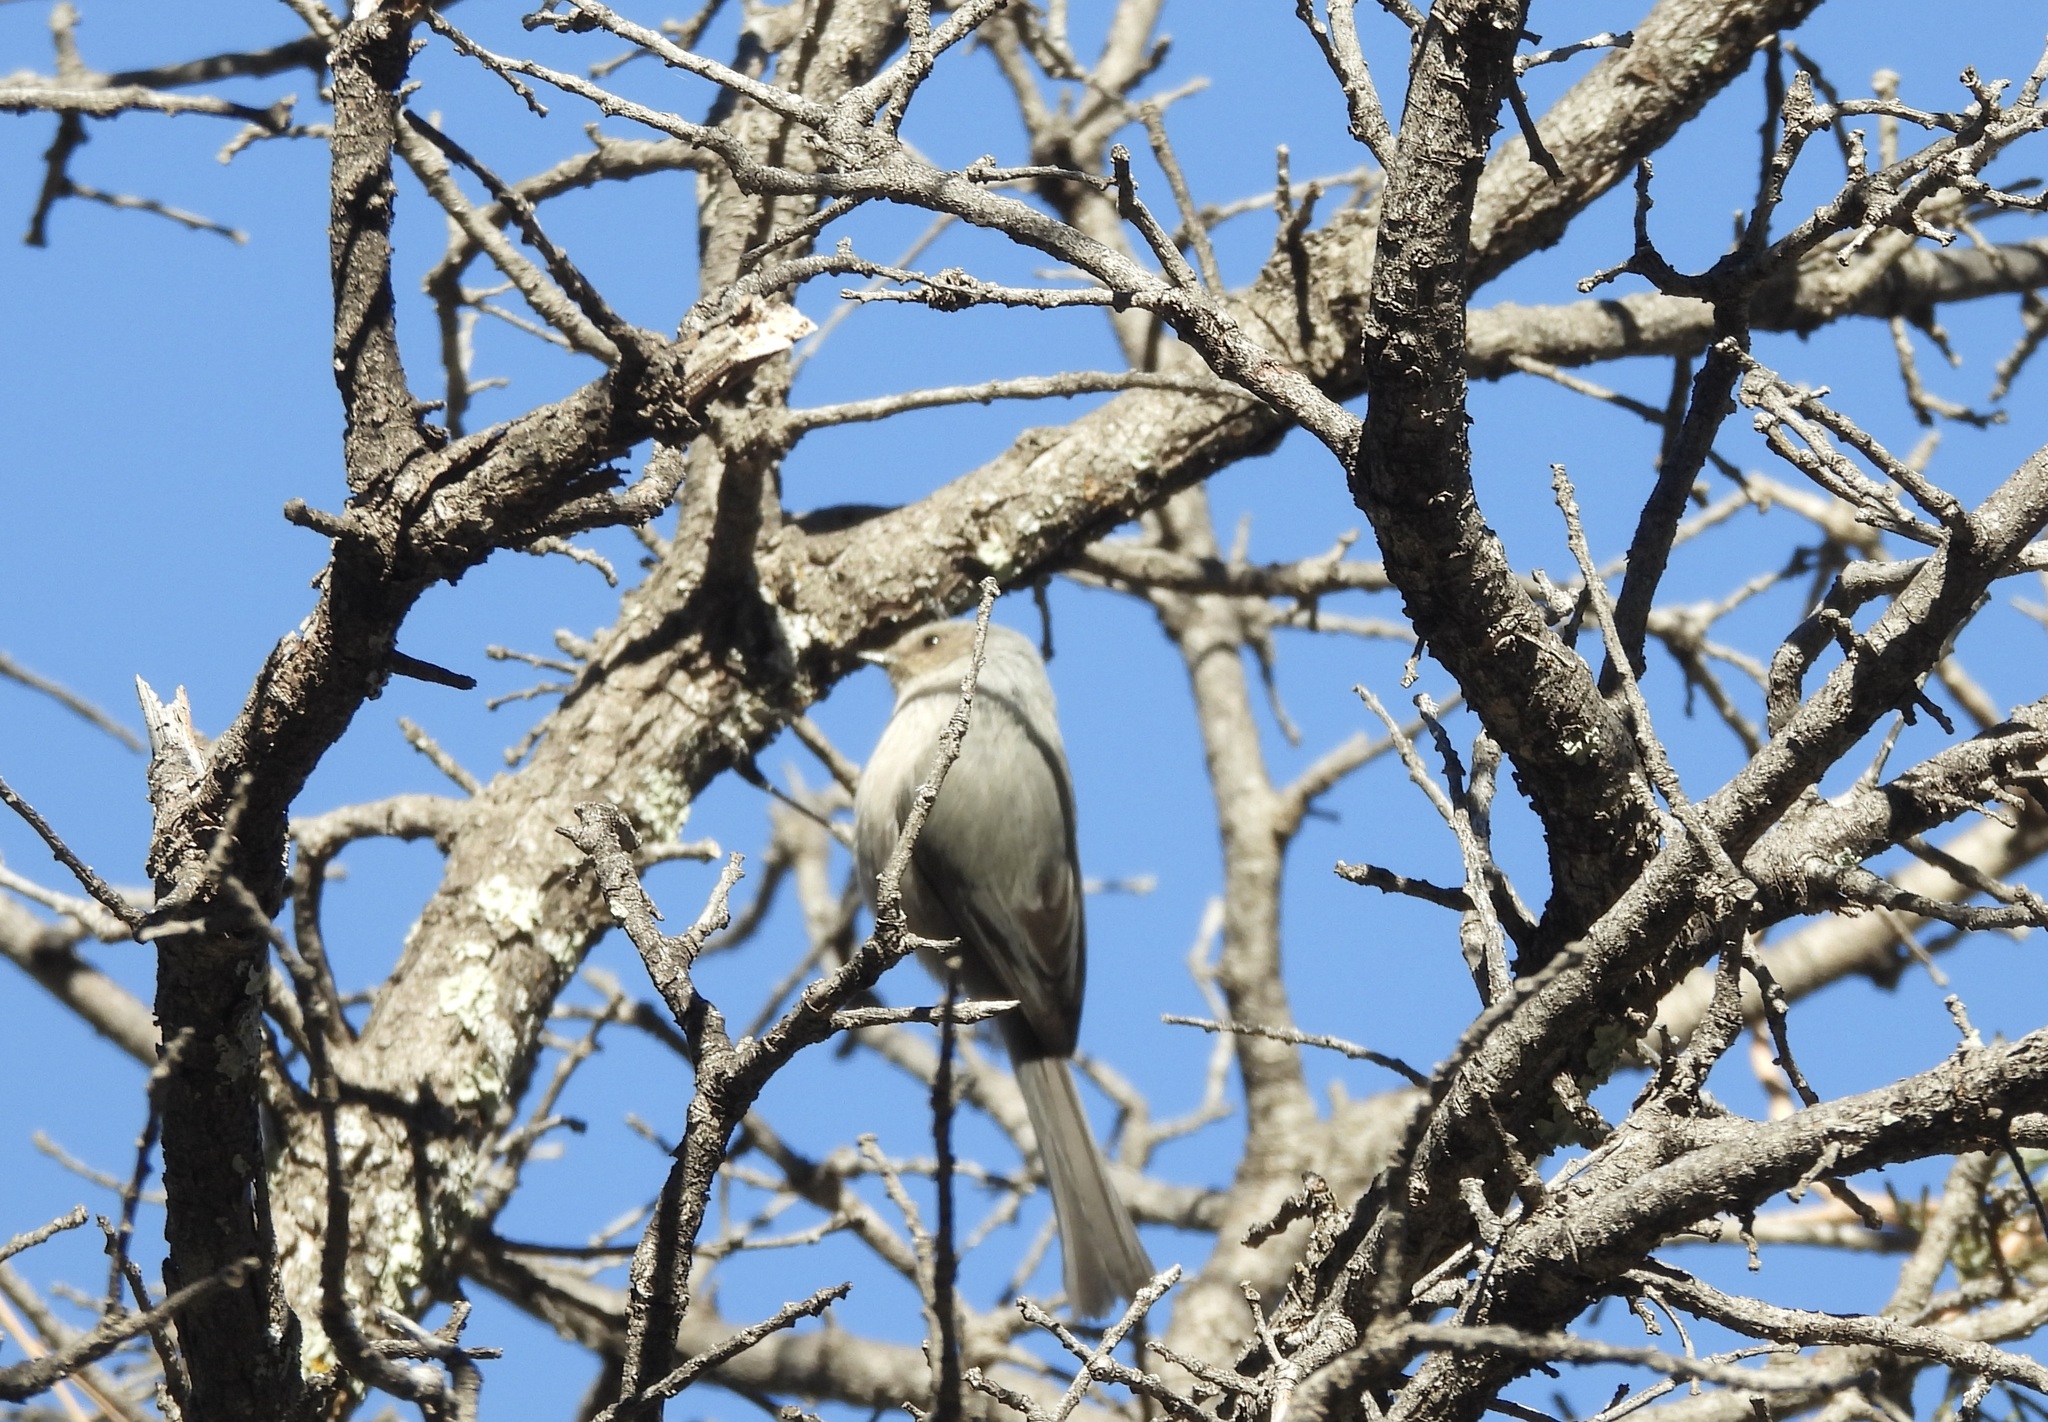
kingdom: Animalia
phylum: Chordata
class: Aves
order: Passeriformes
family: Aegithalidae
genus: Psaltriparus
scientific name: Psaltriparus minimus
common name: American bushtit
